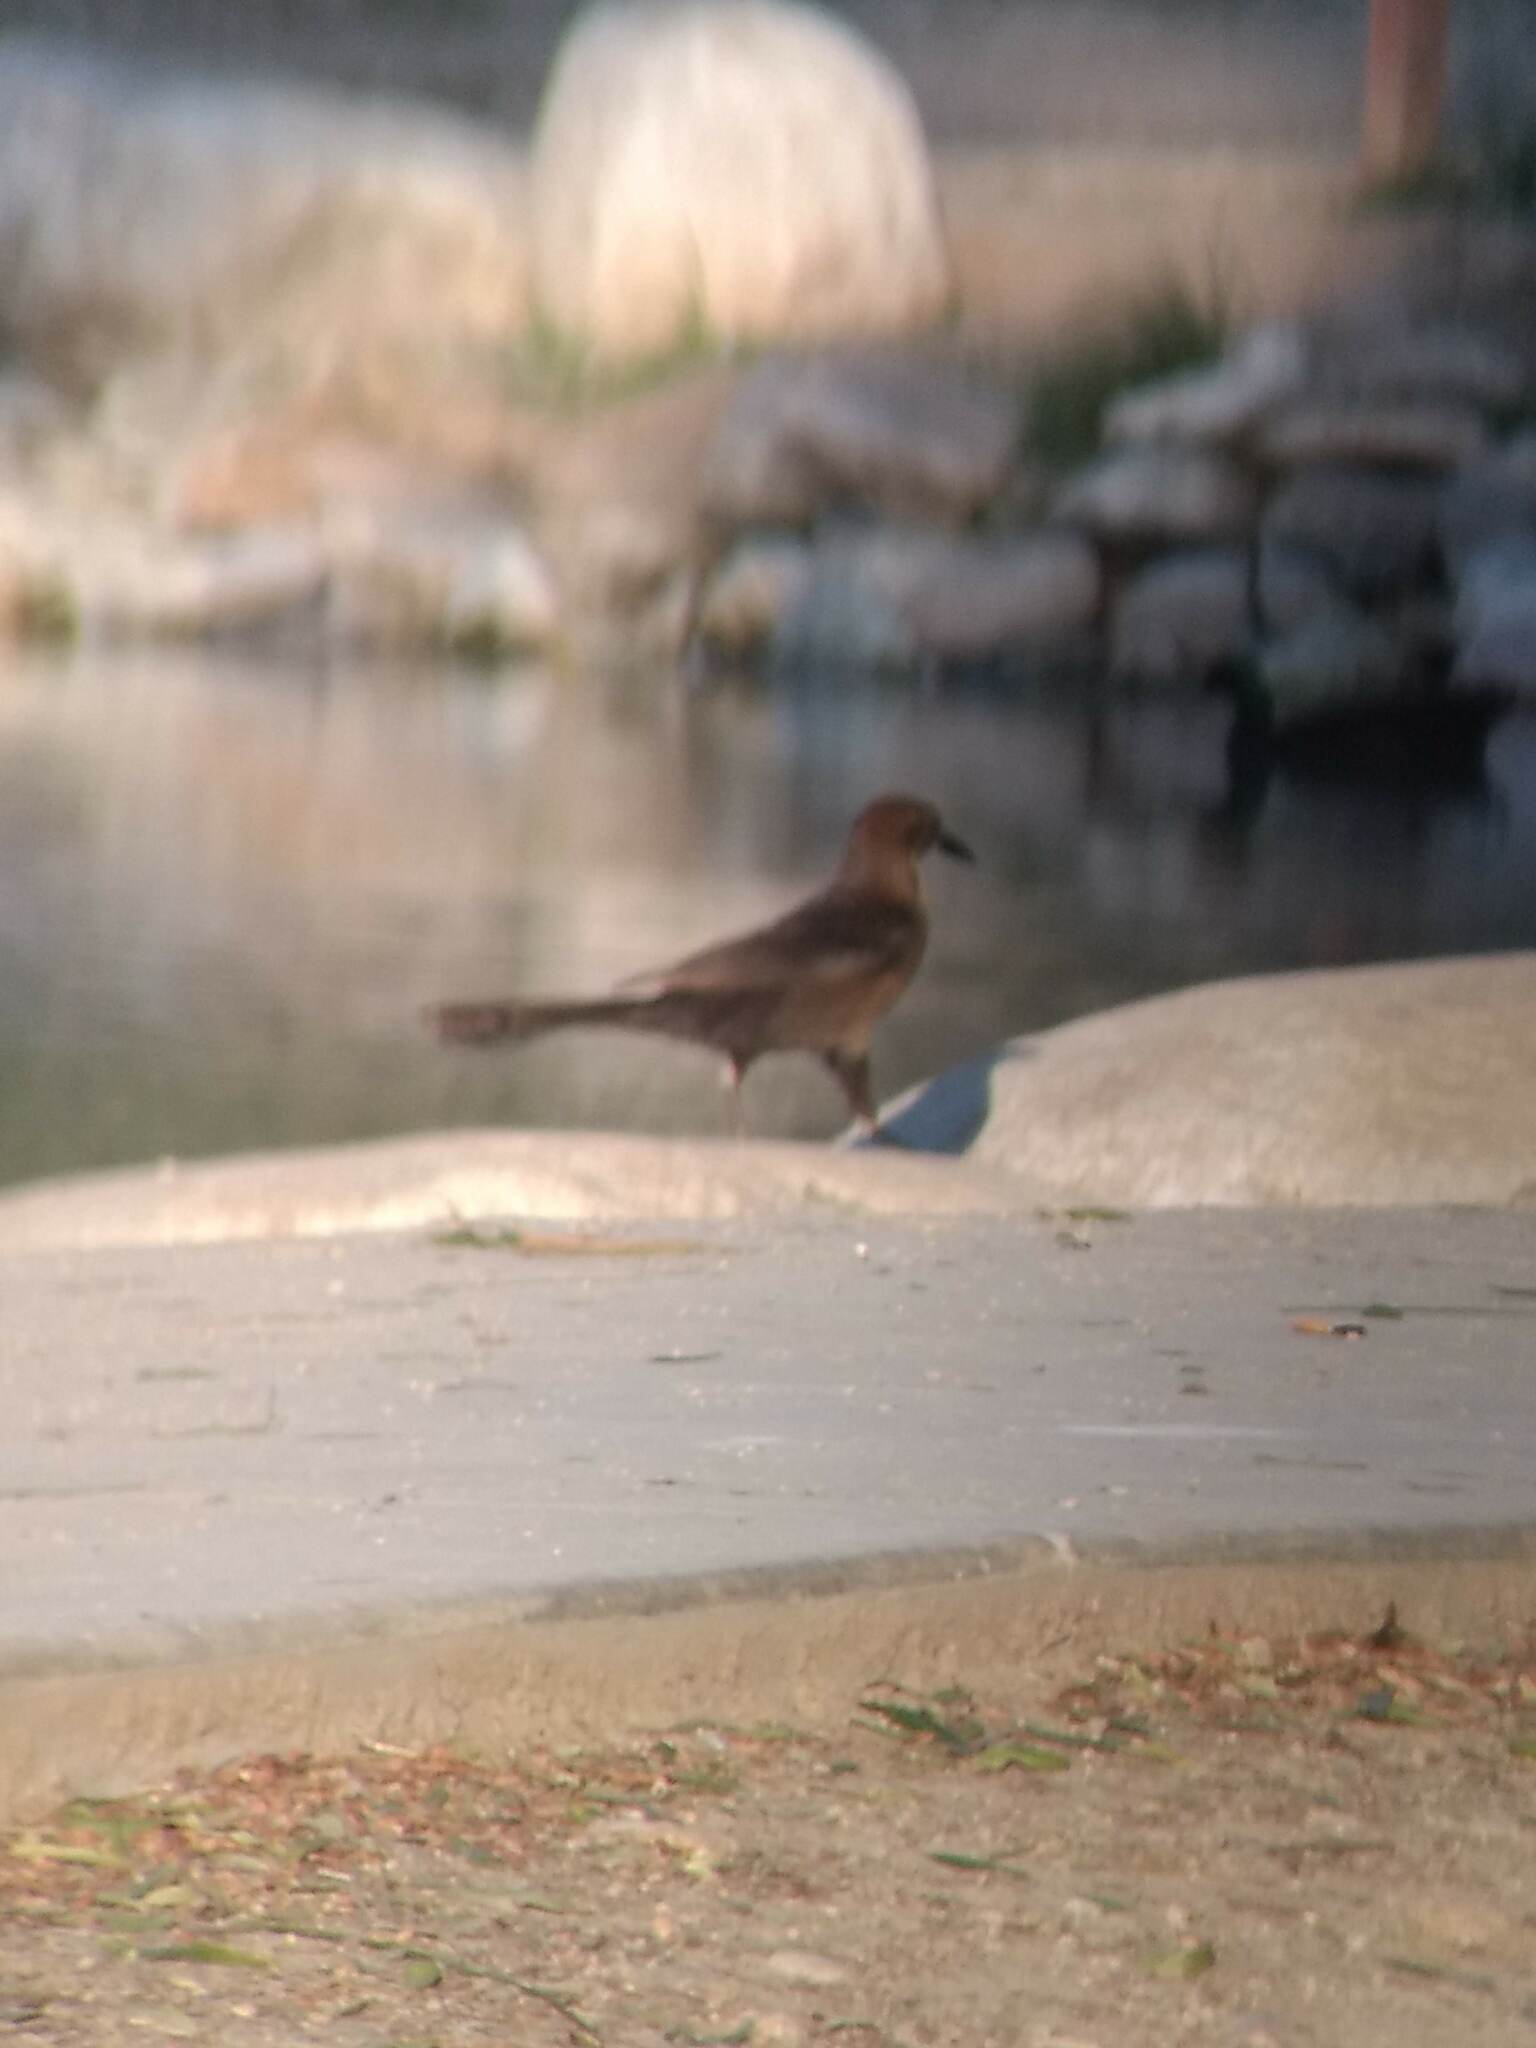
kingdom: Animalia
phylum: Chordata
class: Aves
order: Passeriformes
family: Icteridae
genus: Quiscalus
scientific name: Quiscalus mexicanus
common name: Great-tailed grackle
